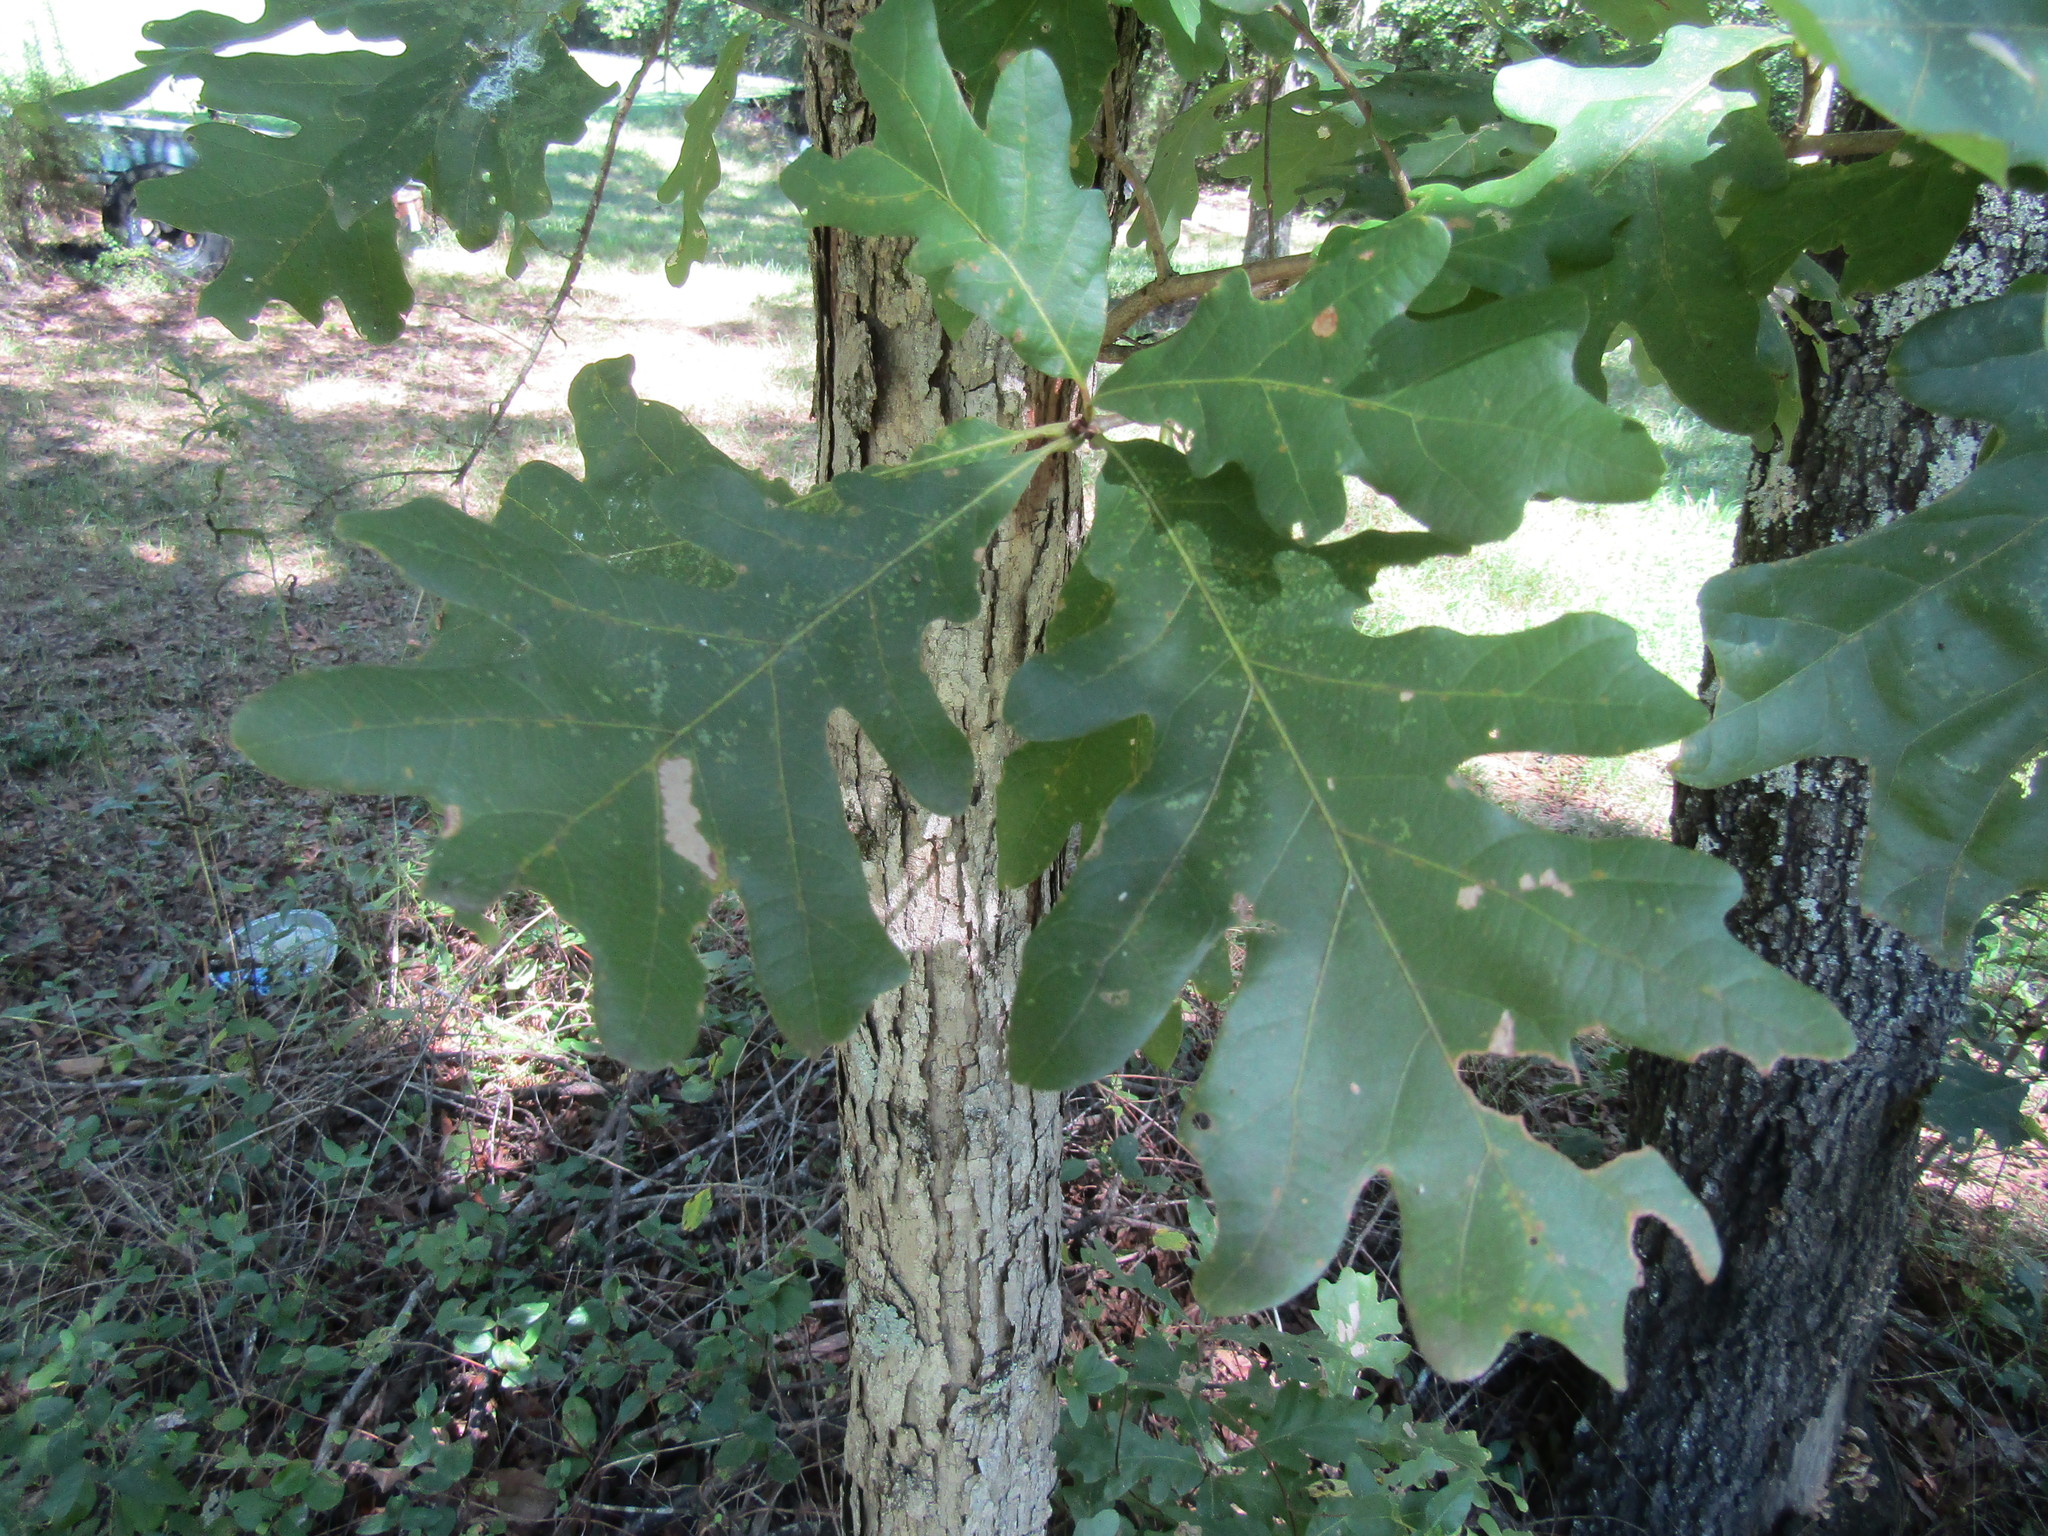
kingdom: Plantae
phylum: Tracheophyta
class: Magnoliopsida
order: Fagales
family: Fagaceae
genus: Quercus
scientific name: Quercus alba
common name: White oak
